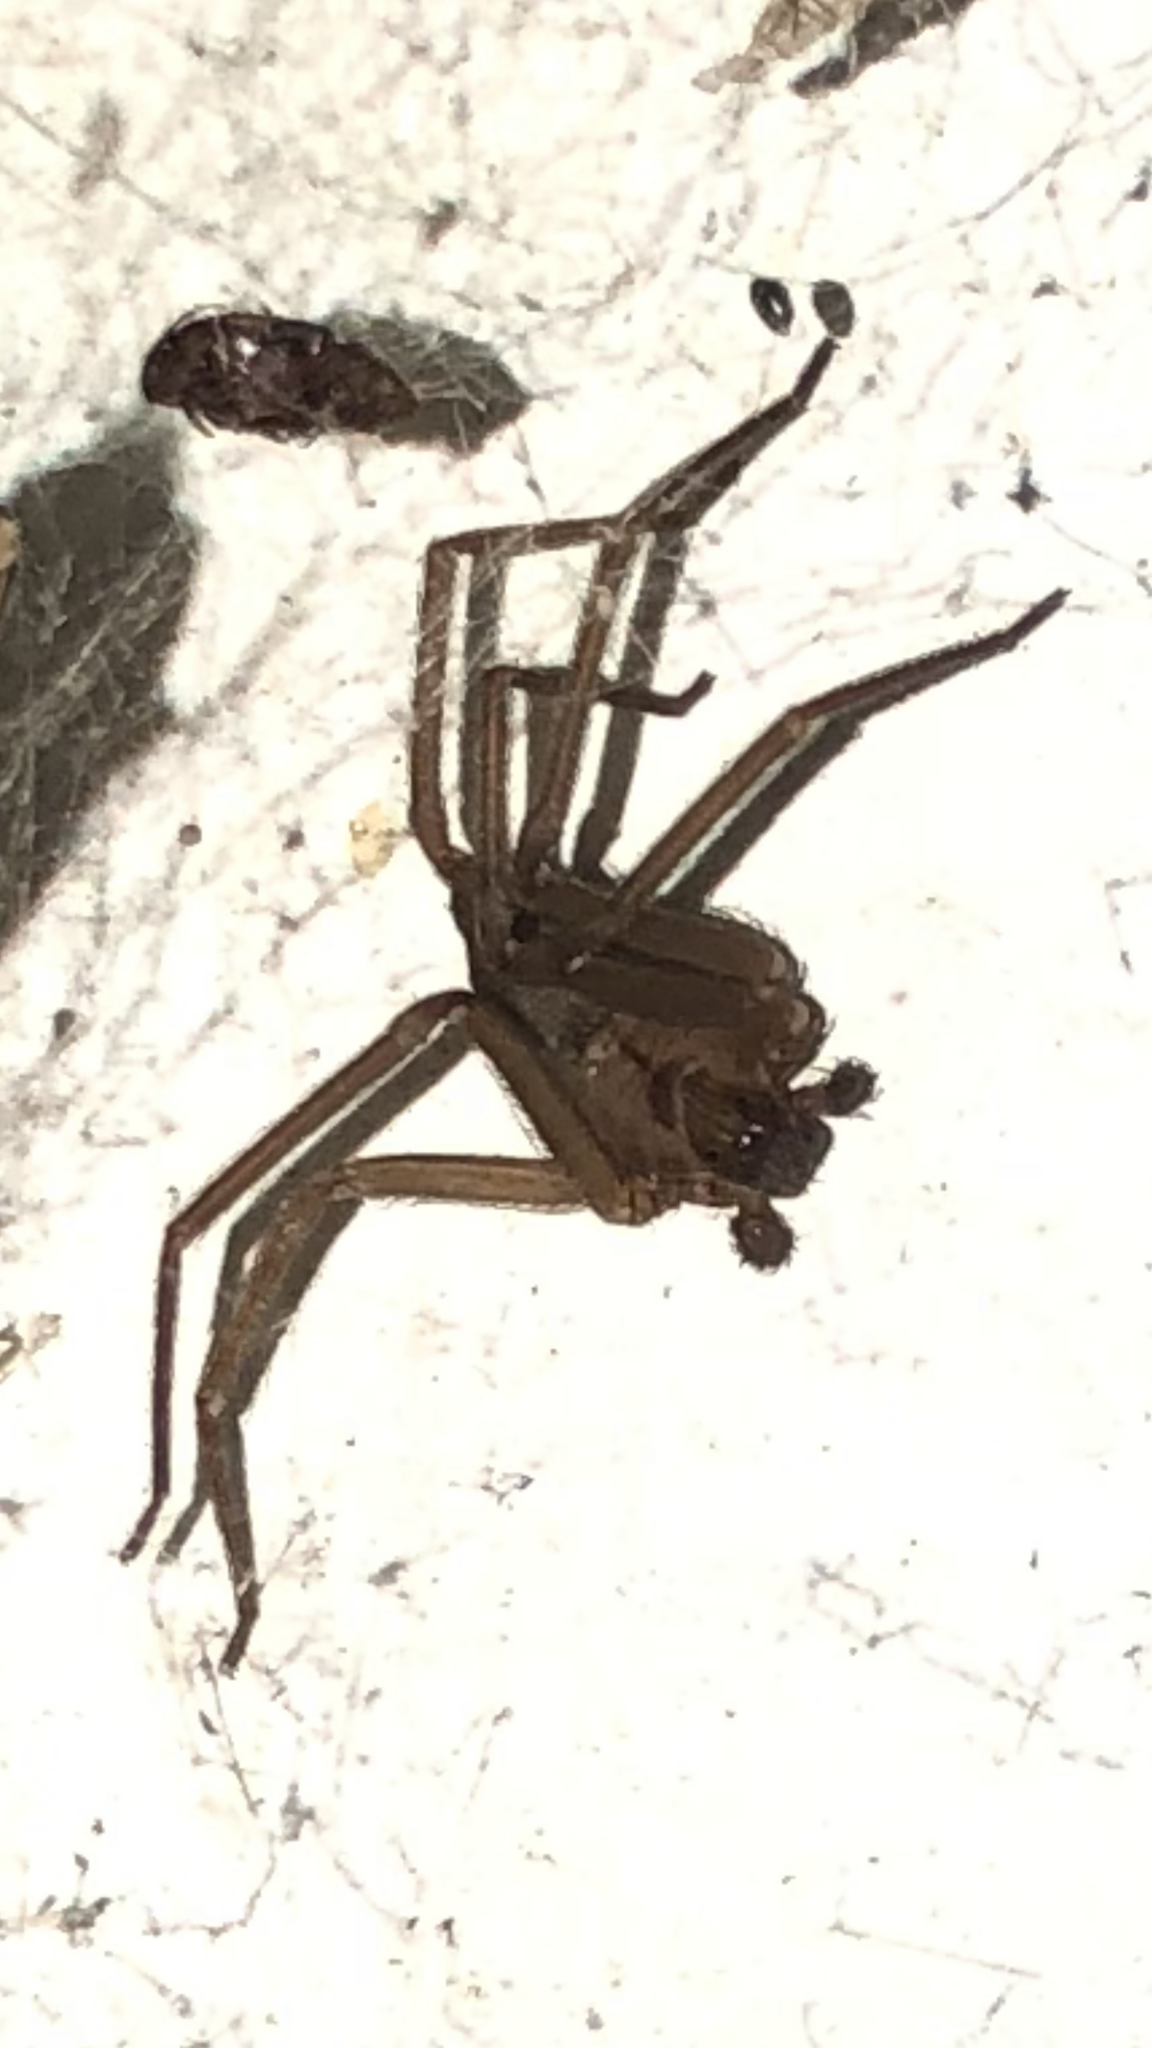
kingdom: Animalia
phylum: Arthropoda
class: Arachnida
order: Araneae
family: Sicariidae
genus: Loxosceles
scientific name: Loxosceles reclusa
